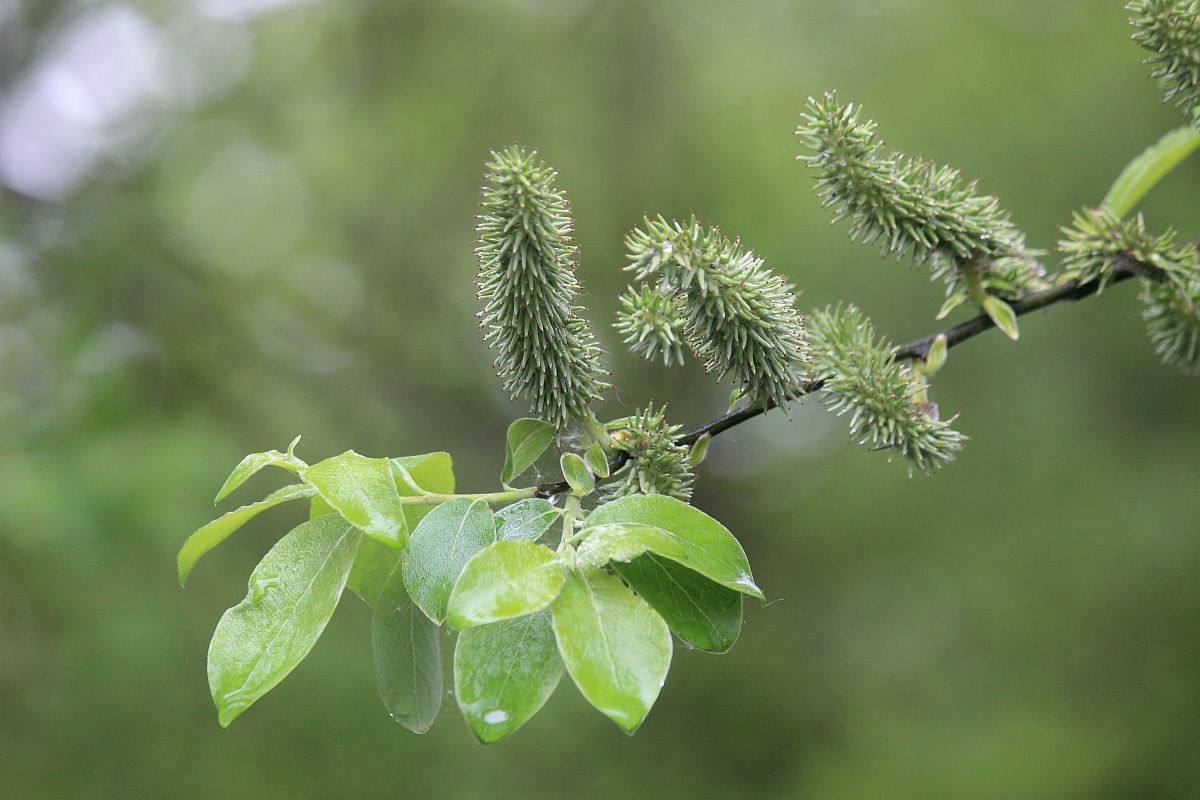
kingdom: Plantae
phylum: Tracheophyta
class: Magnoliopsida
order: Malpighiales
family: Salicaceae
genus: Salix
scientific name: Salix caprea
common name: Goat willow
